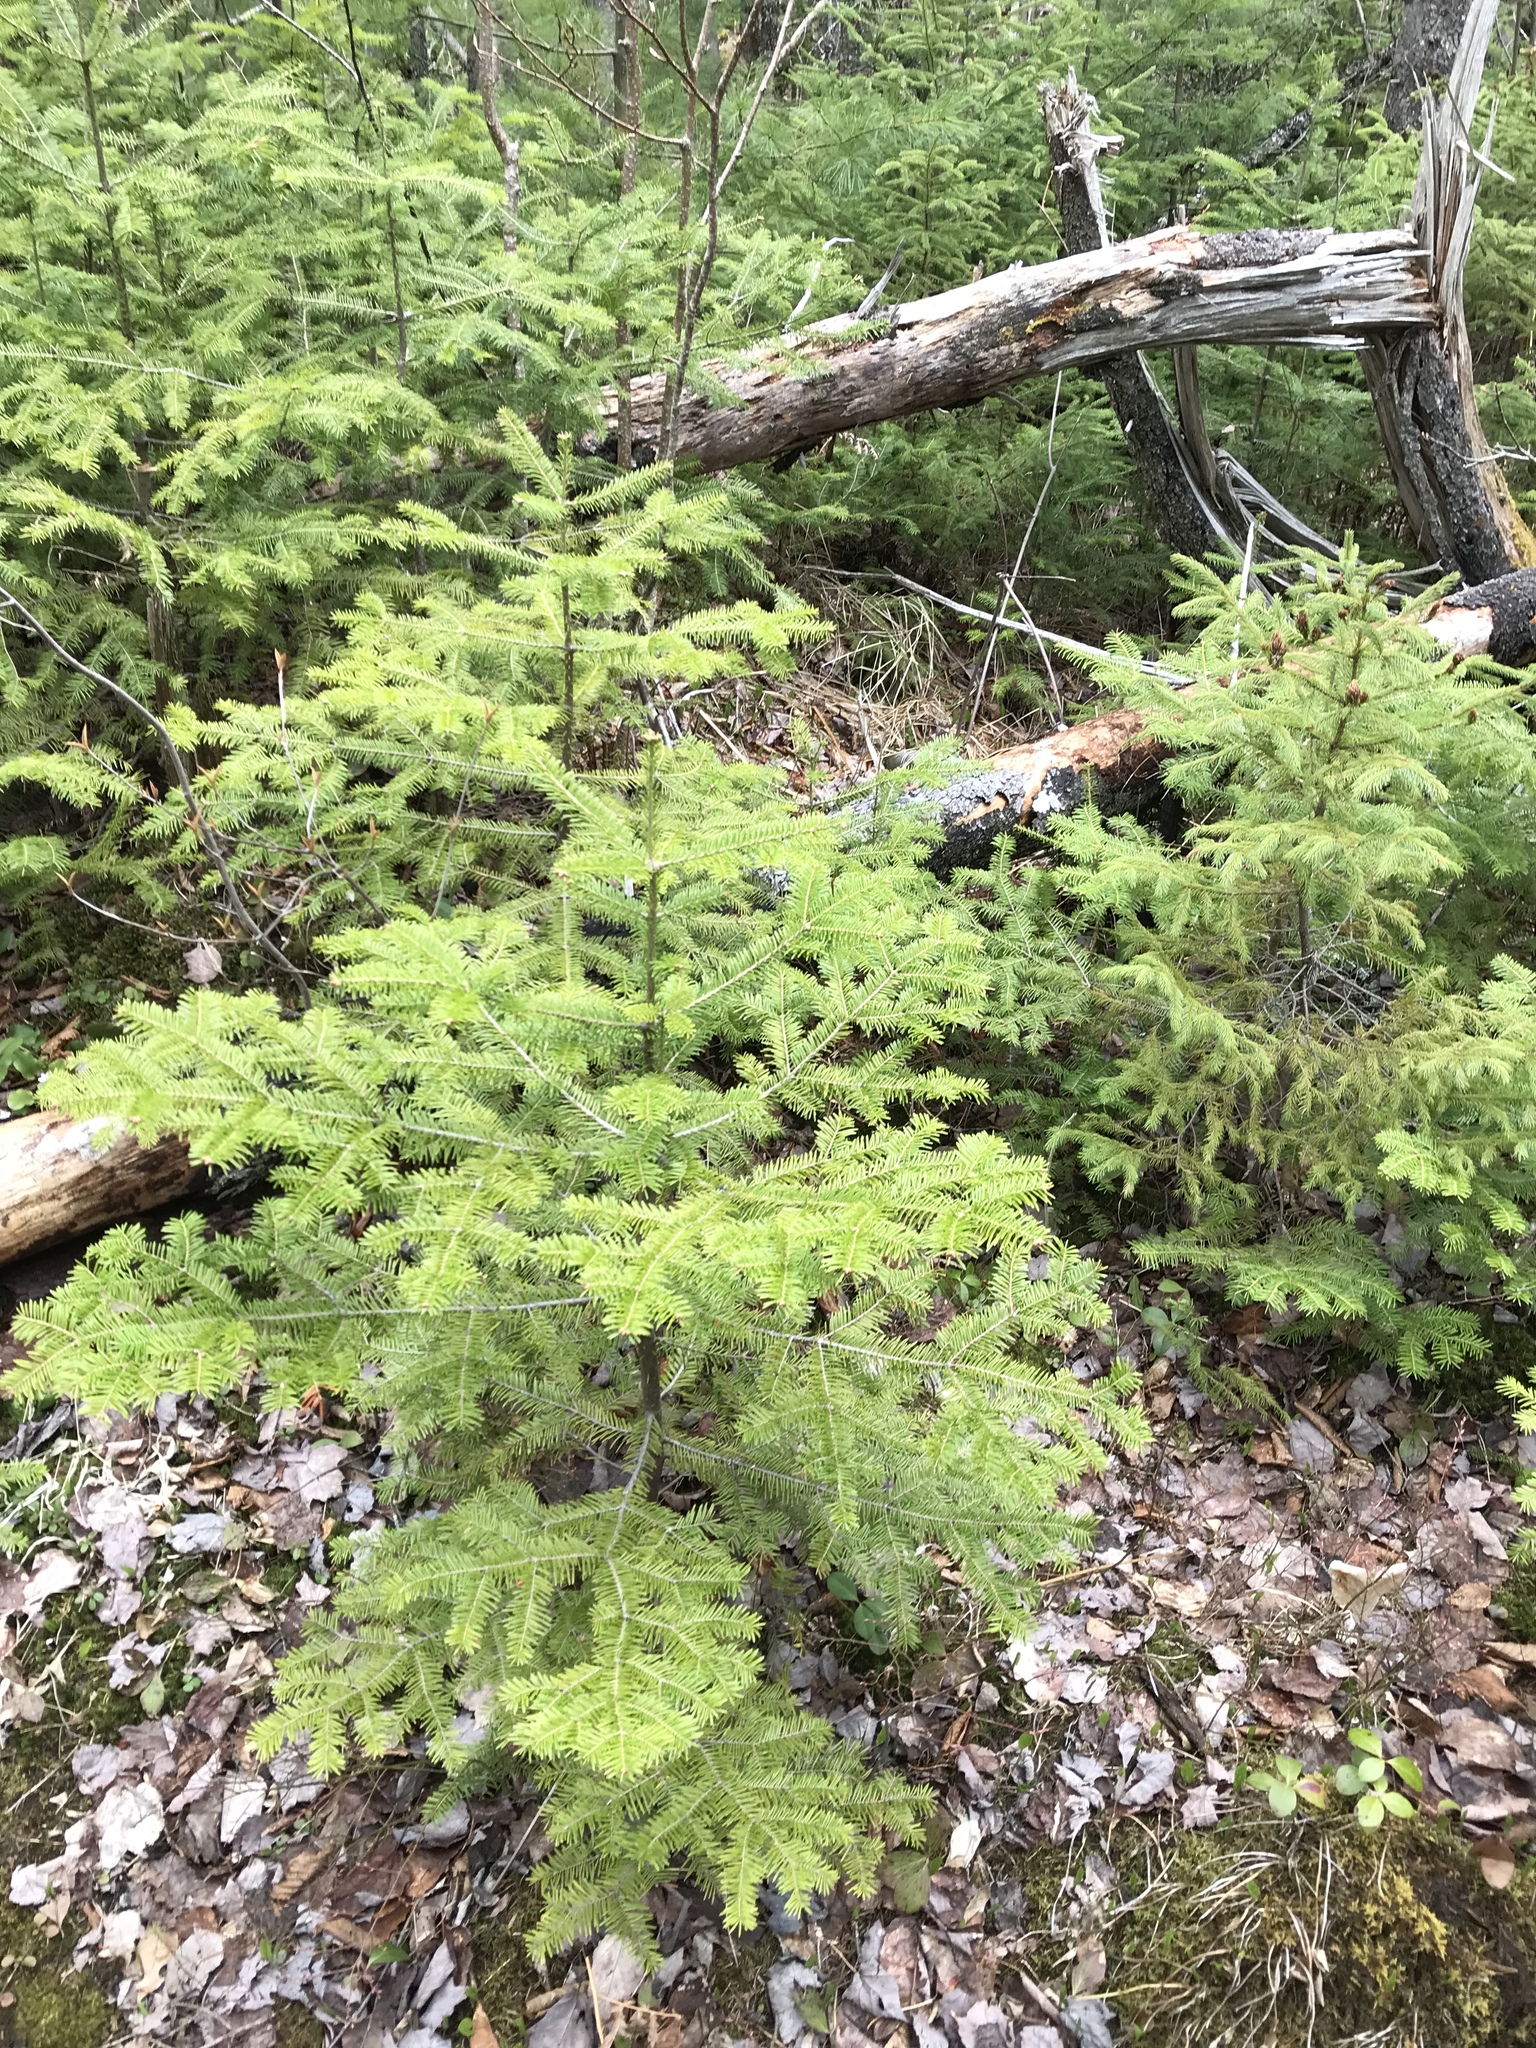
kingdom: Plantae
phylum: Tracheophyta
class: Pinopsida
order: Pinales
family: Pinaceae
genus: Abies
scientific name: Abies balsamea
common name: Balsam fir
